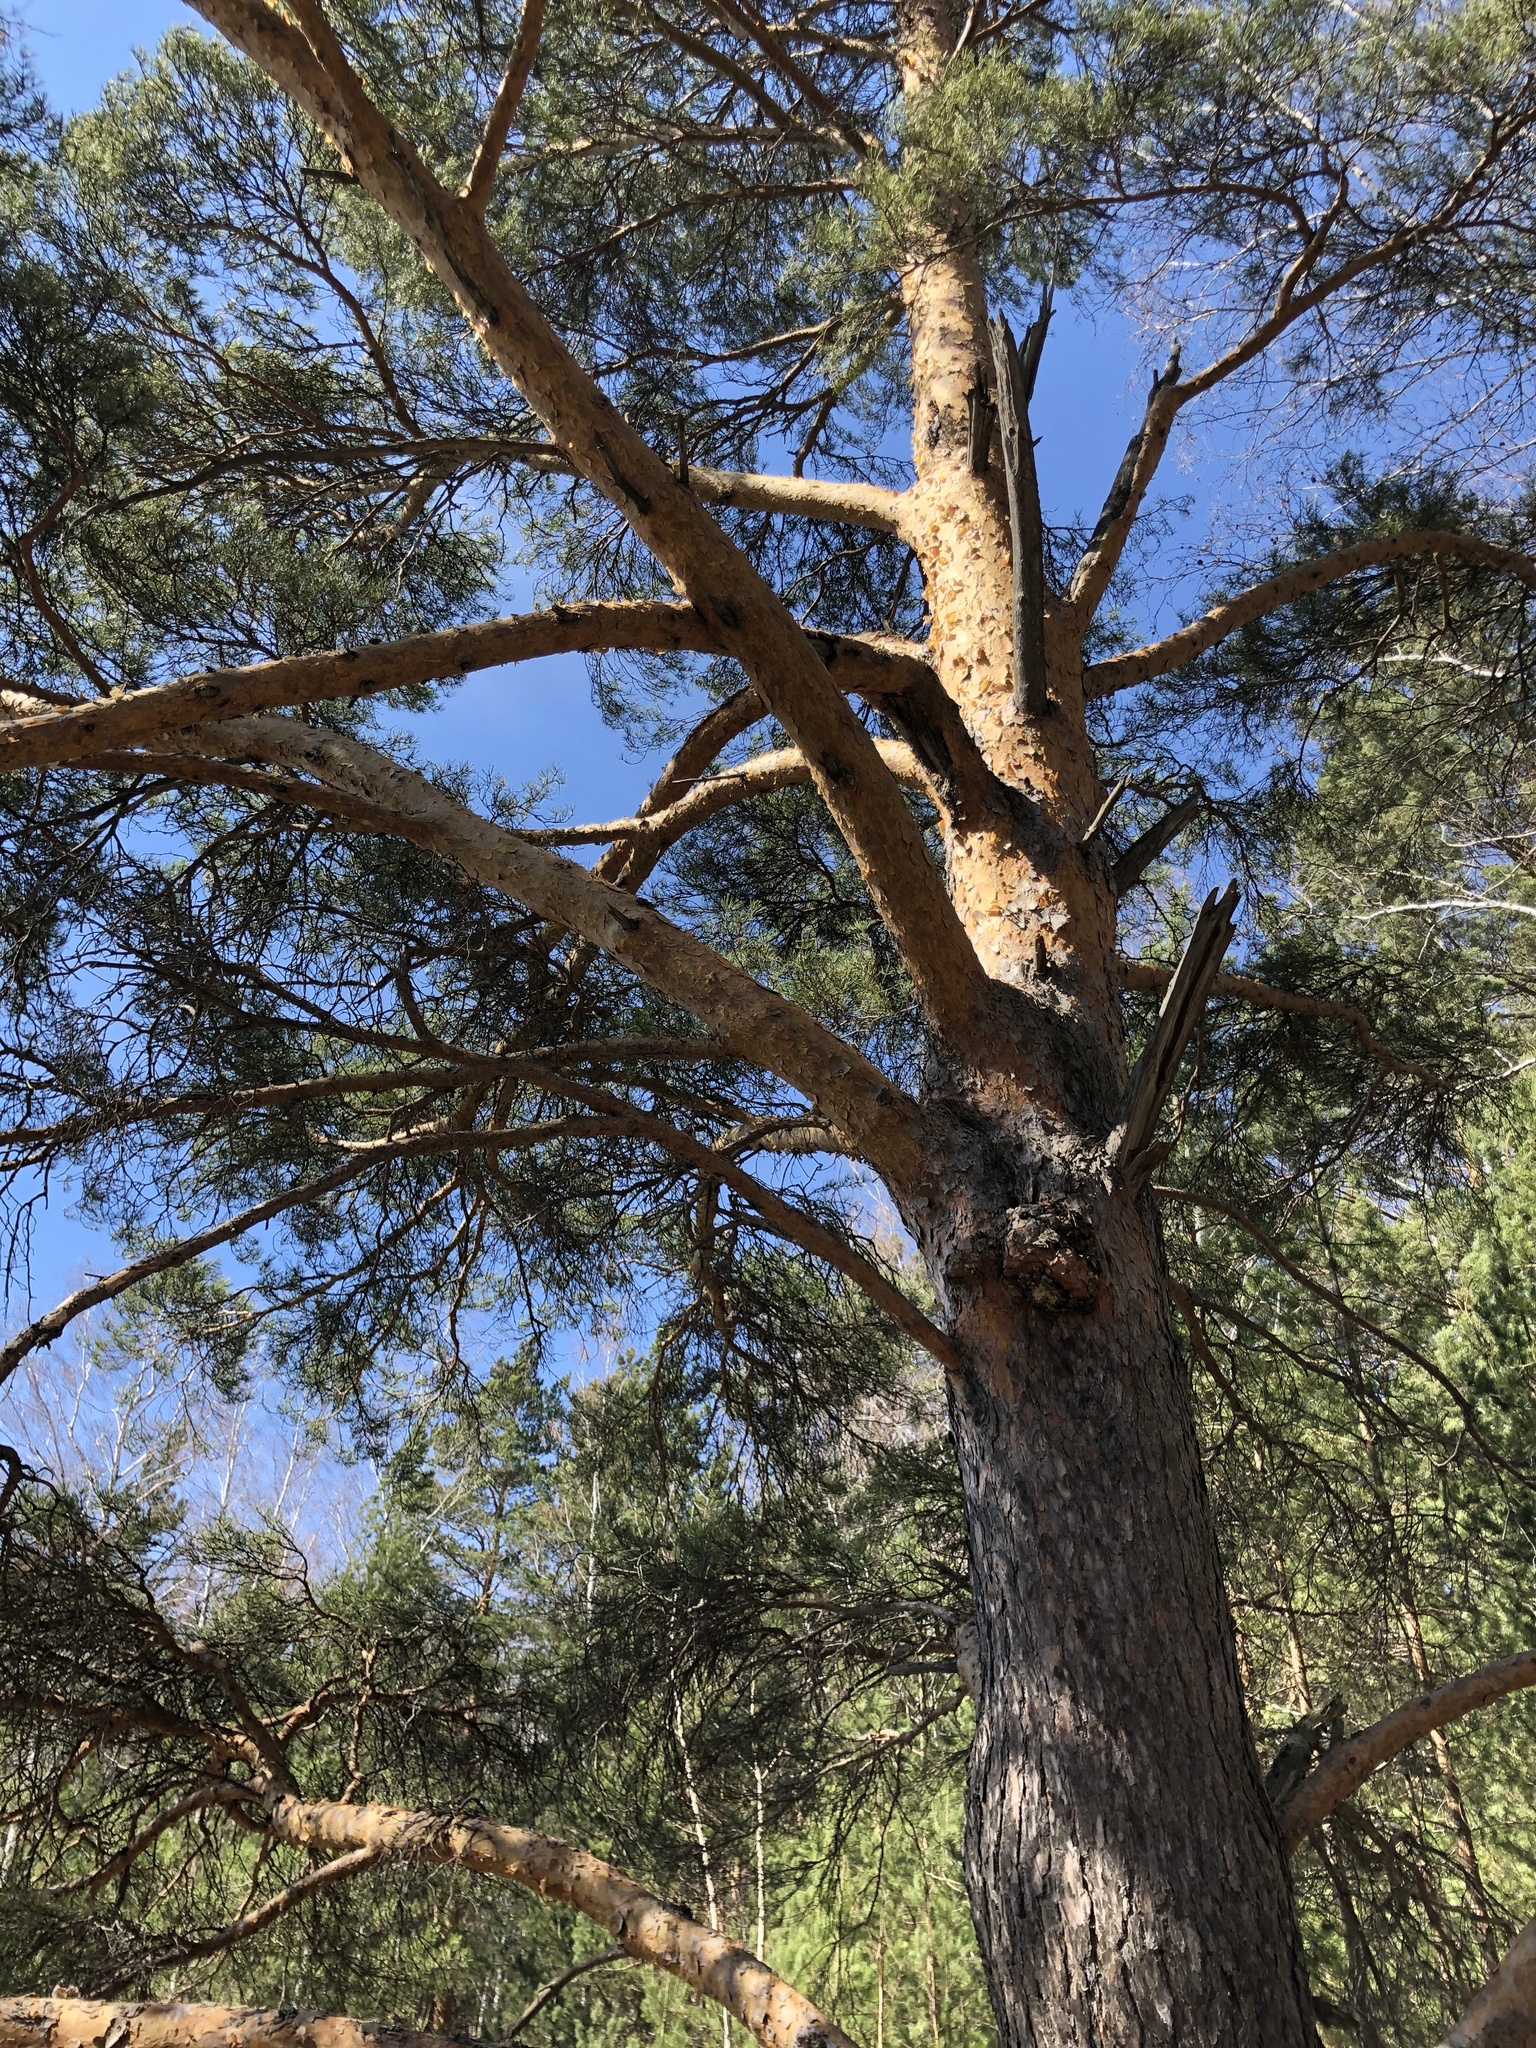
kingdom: Plantae
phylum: Tracheophyta
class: Pinopsida
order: Pinales
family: Pinaceae
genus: Pinus
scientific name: Pinus sylvestris
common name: Scots pine
